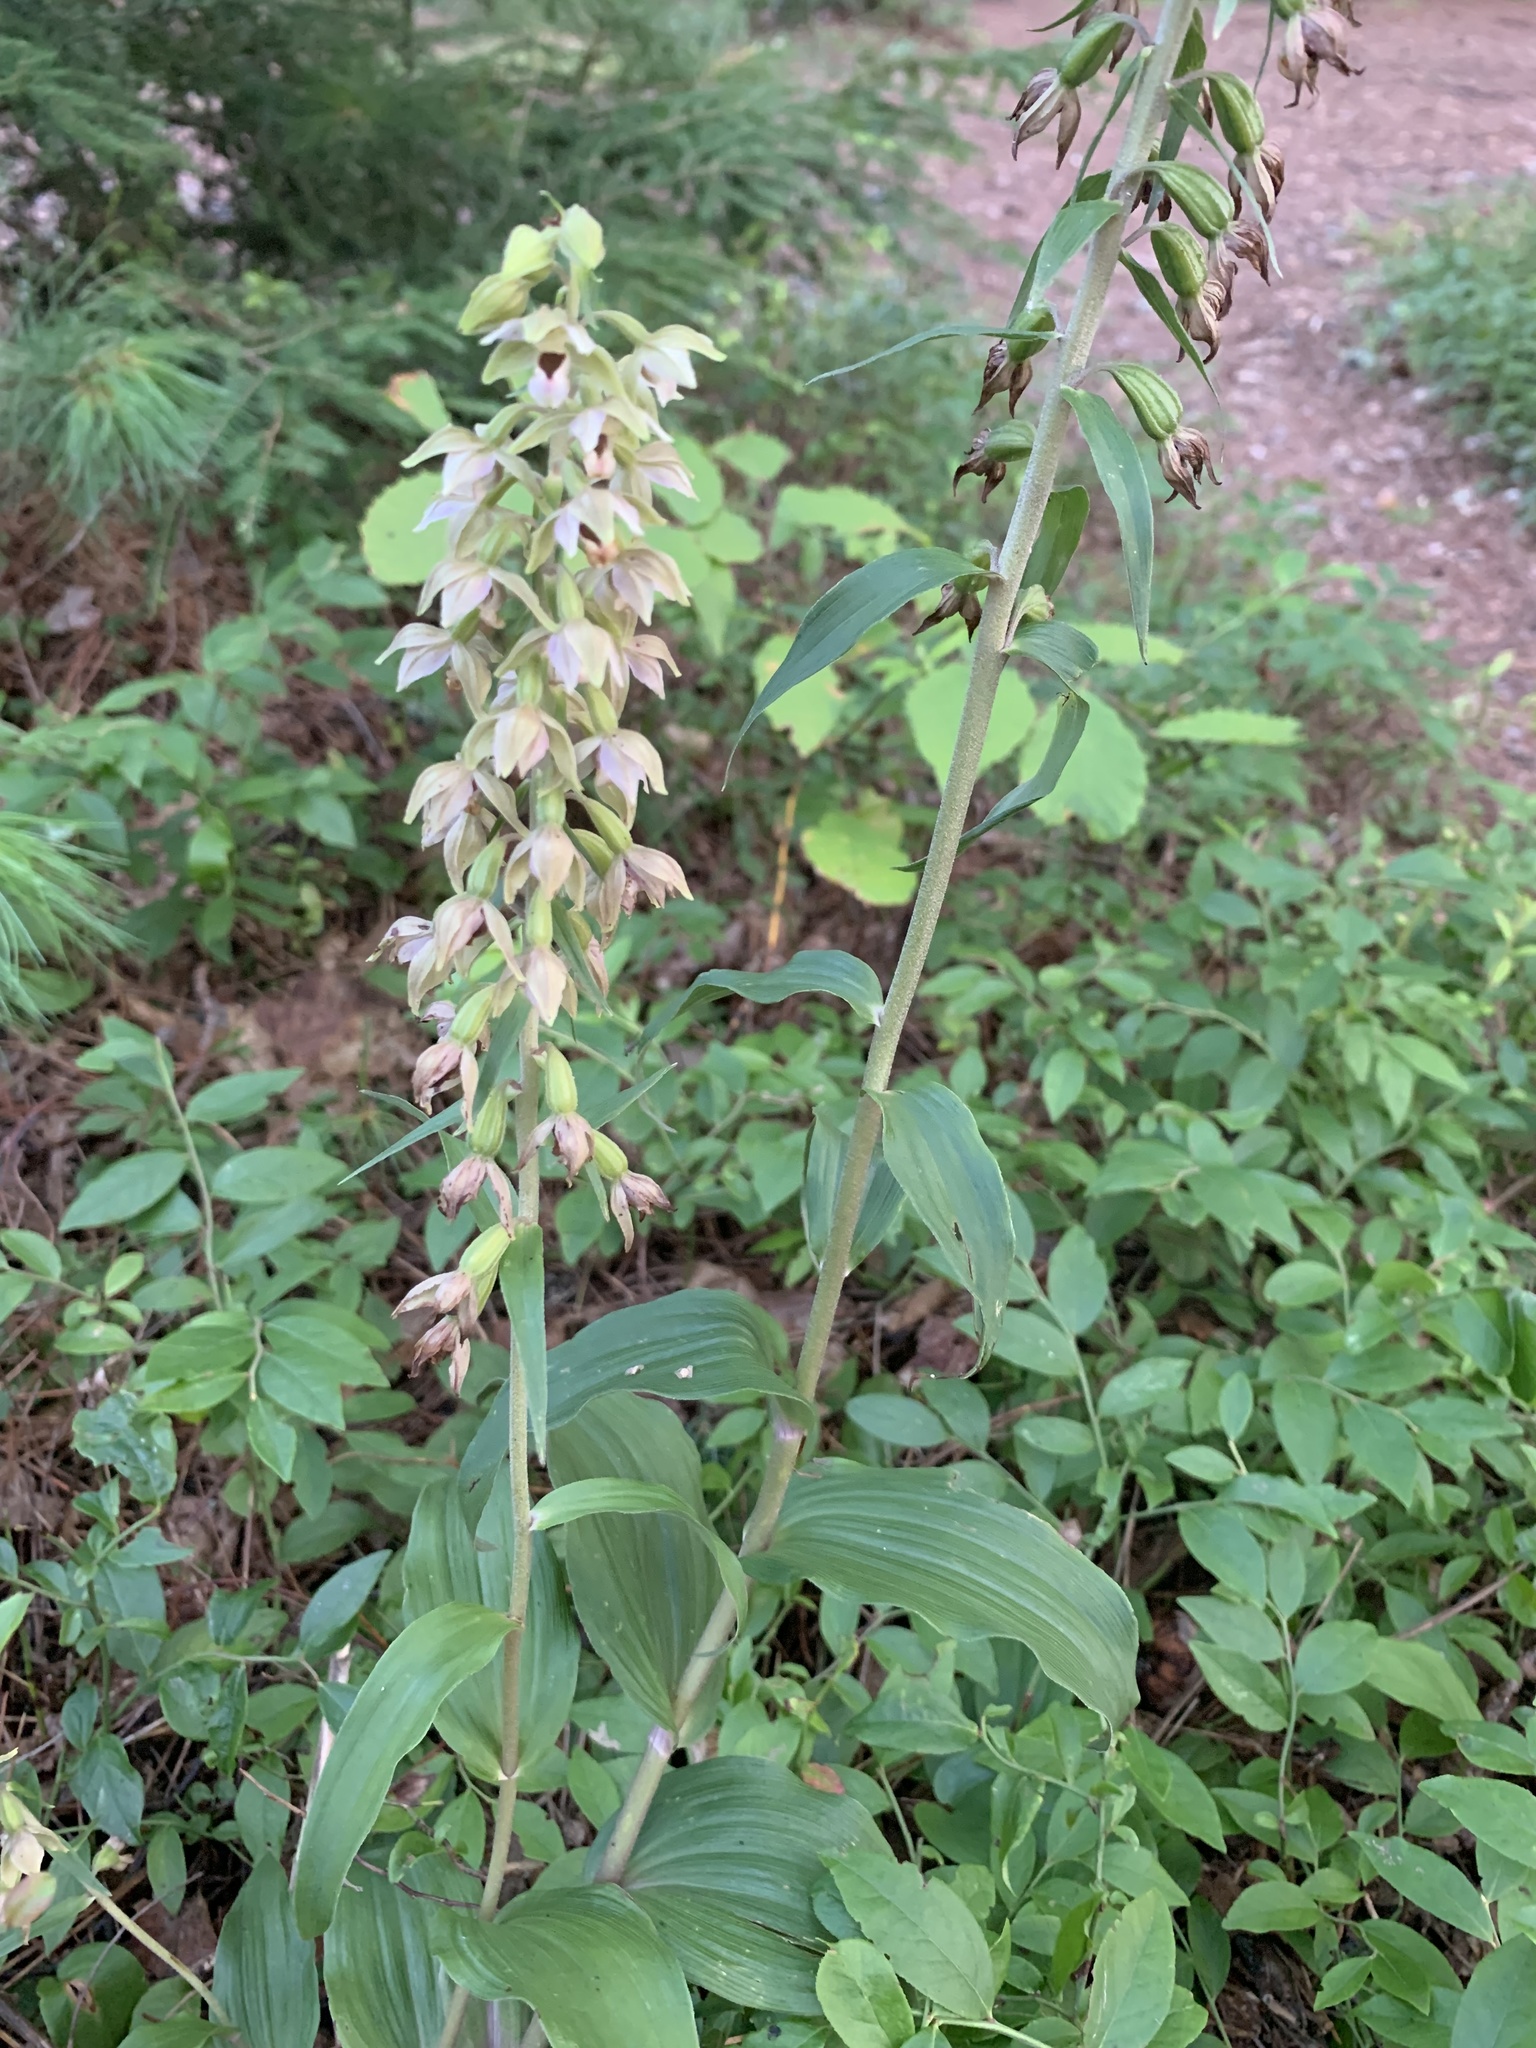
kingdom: Plantae
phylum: Tracheophyta
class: Liliopsida
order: Asparagales
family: Orchidaceae
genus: Epipactis
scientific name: Epipactis helleborine
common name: Broad-leaved helleborine
